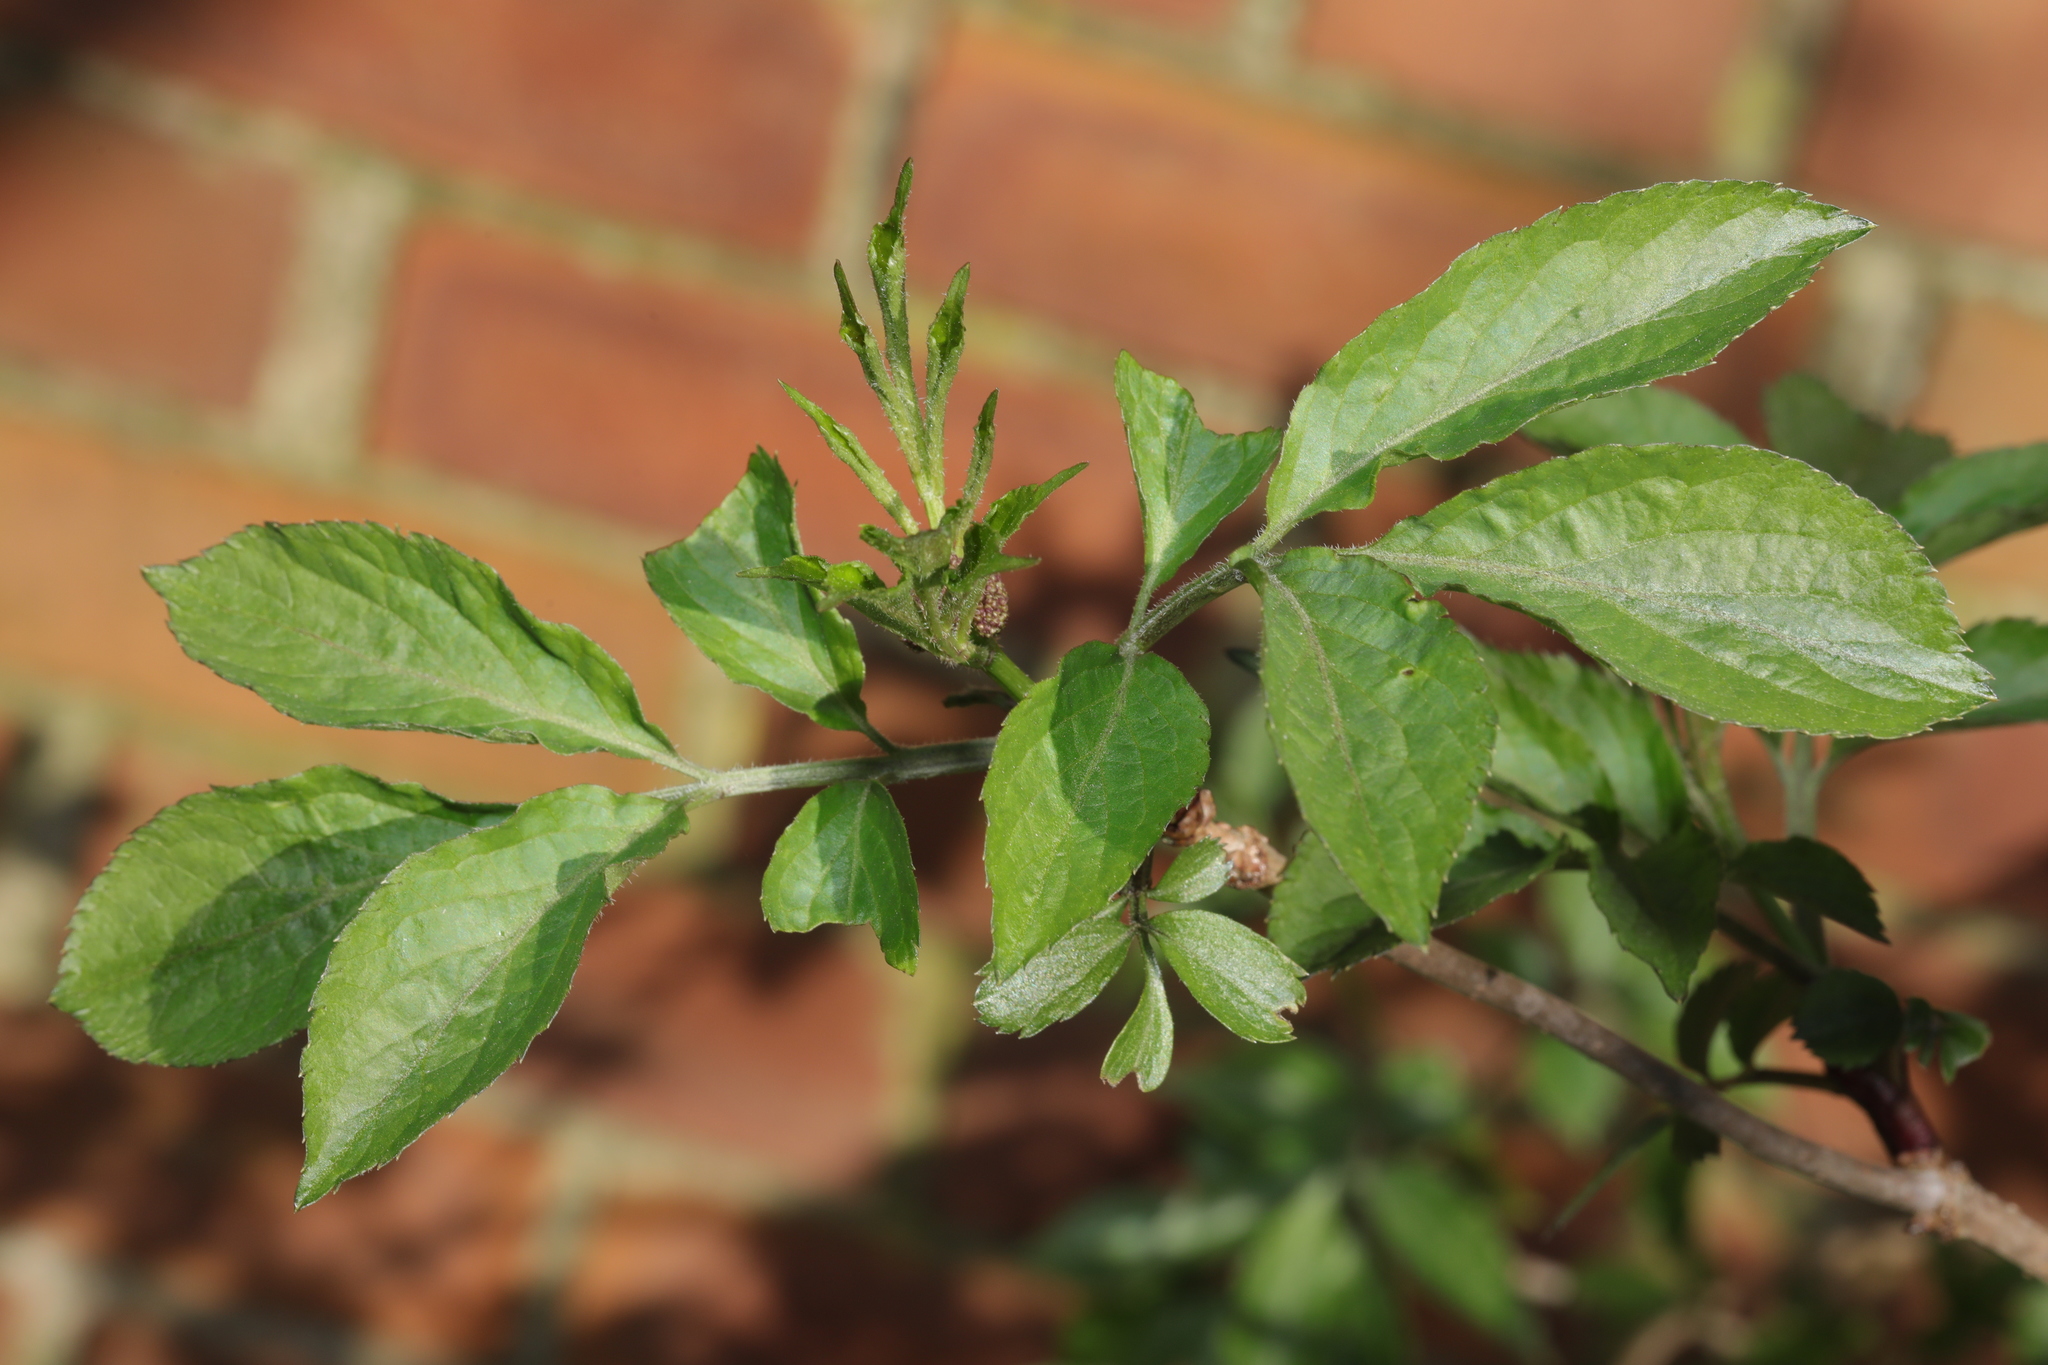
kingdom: Plantae
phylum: Tracheophyta
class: Magnoliopsida
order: Dipsacales
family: Viburnaceae
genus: Sambucus
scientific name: Sambucus nigra
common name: Elder
